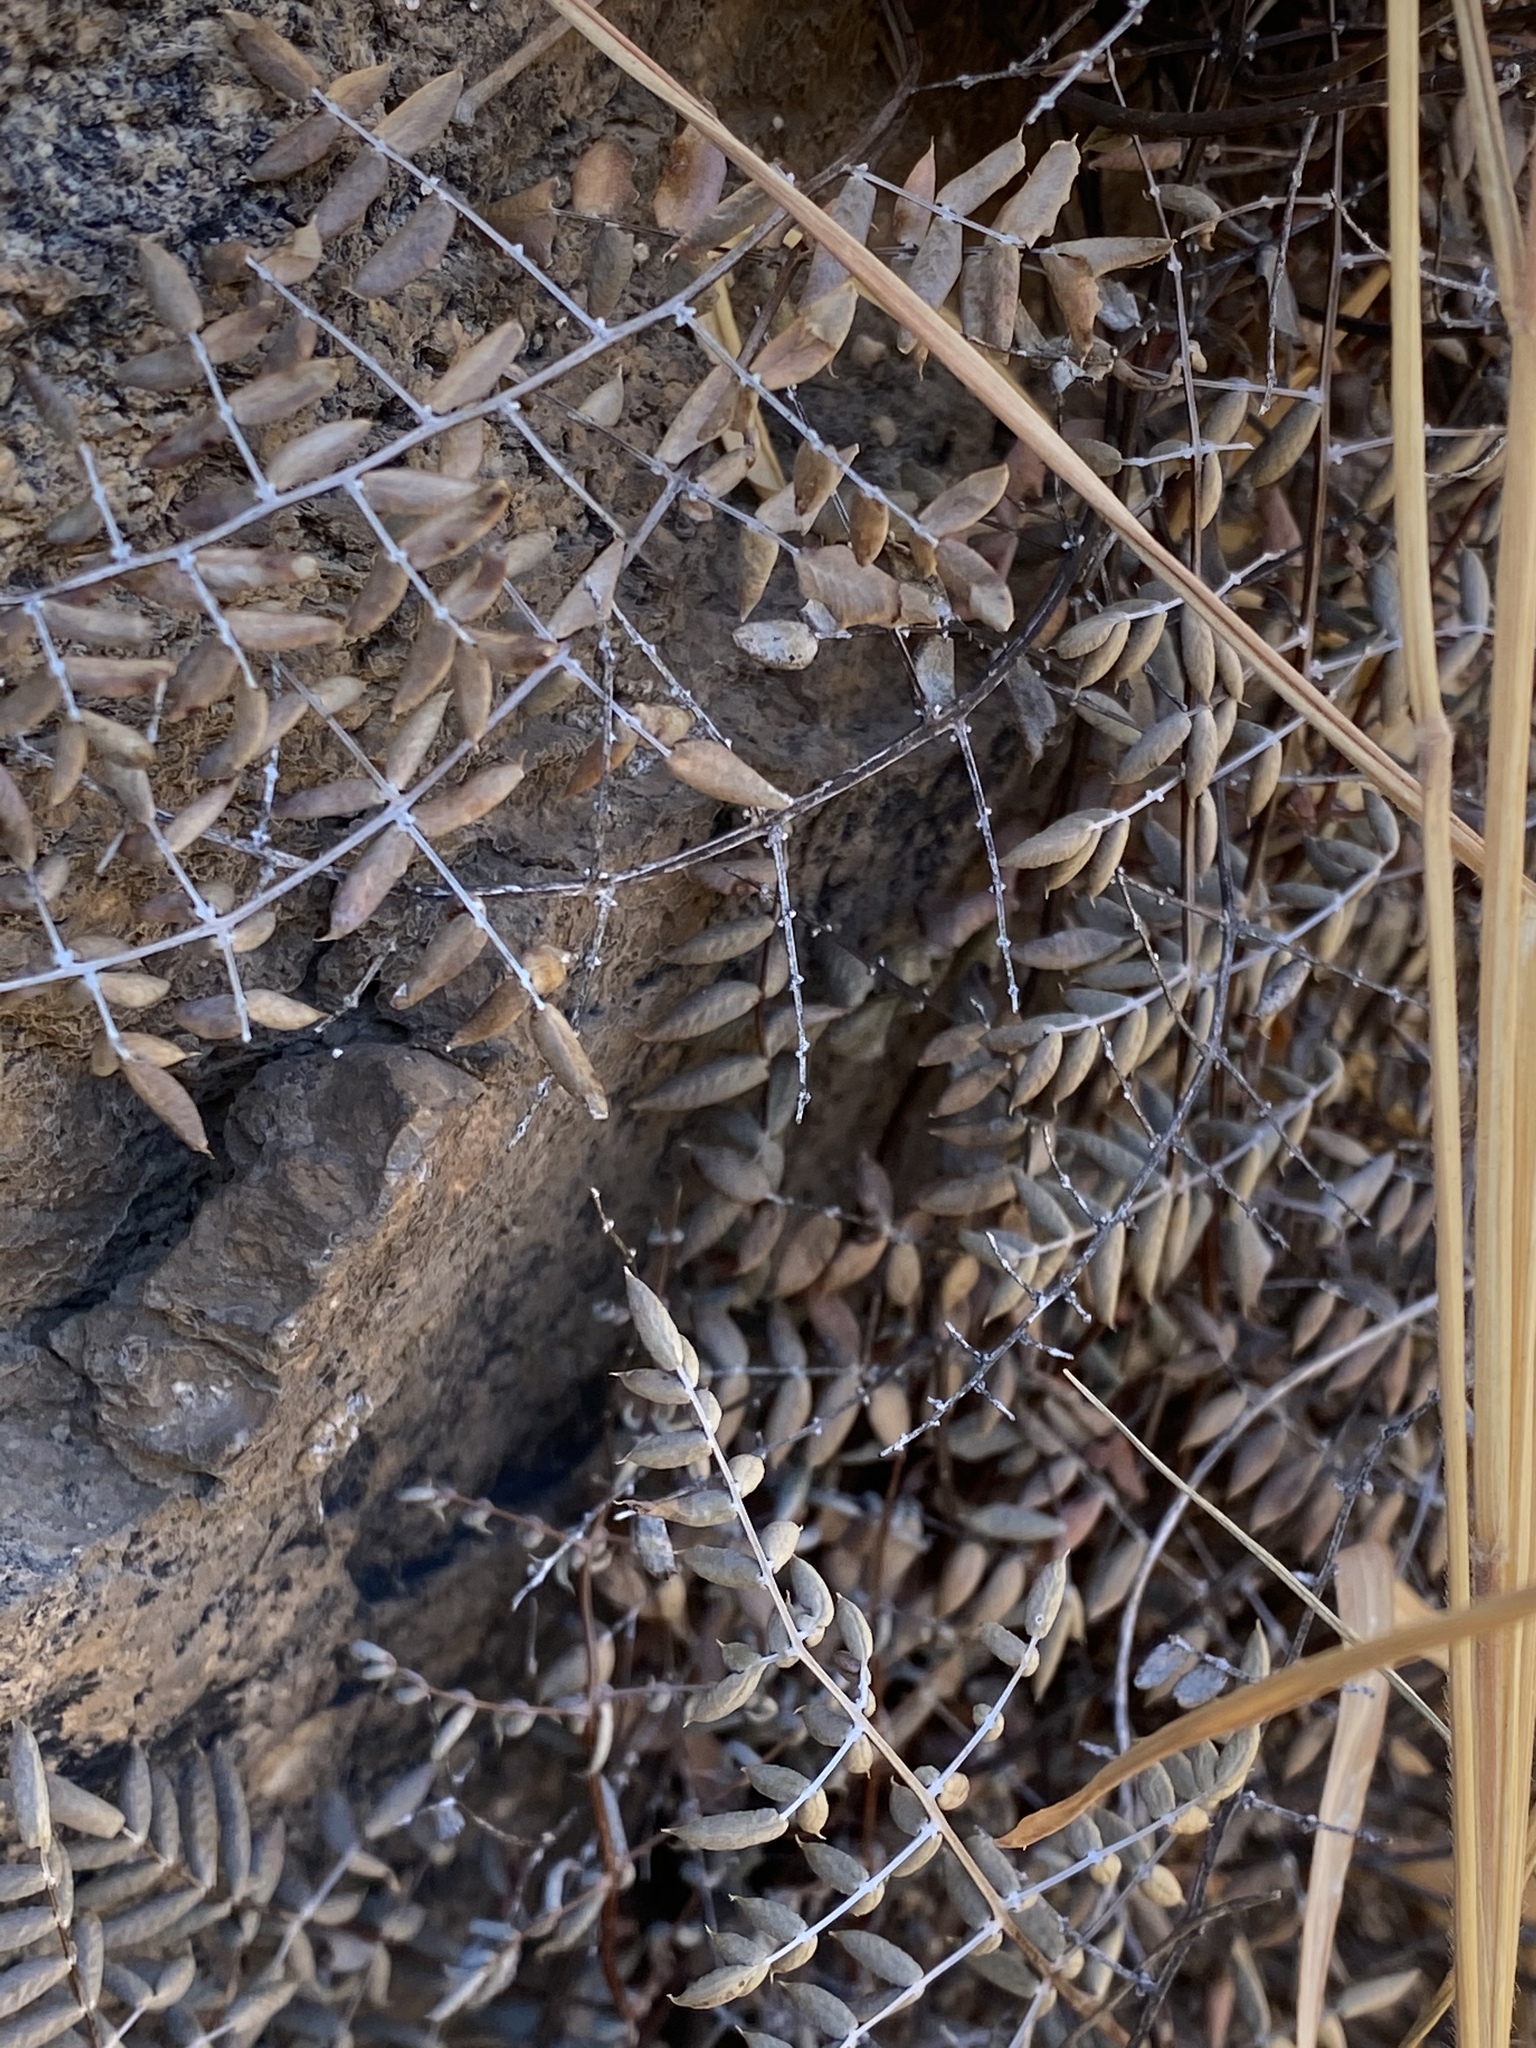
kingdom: Plantae
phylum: Tracheophyta
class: Polypodiopsida
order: Polypodiales
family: Pteridaceae
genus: Pellaea
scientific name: Pellaea truncata
